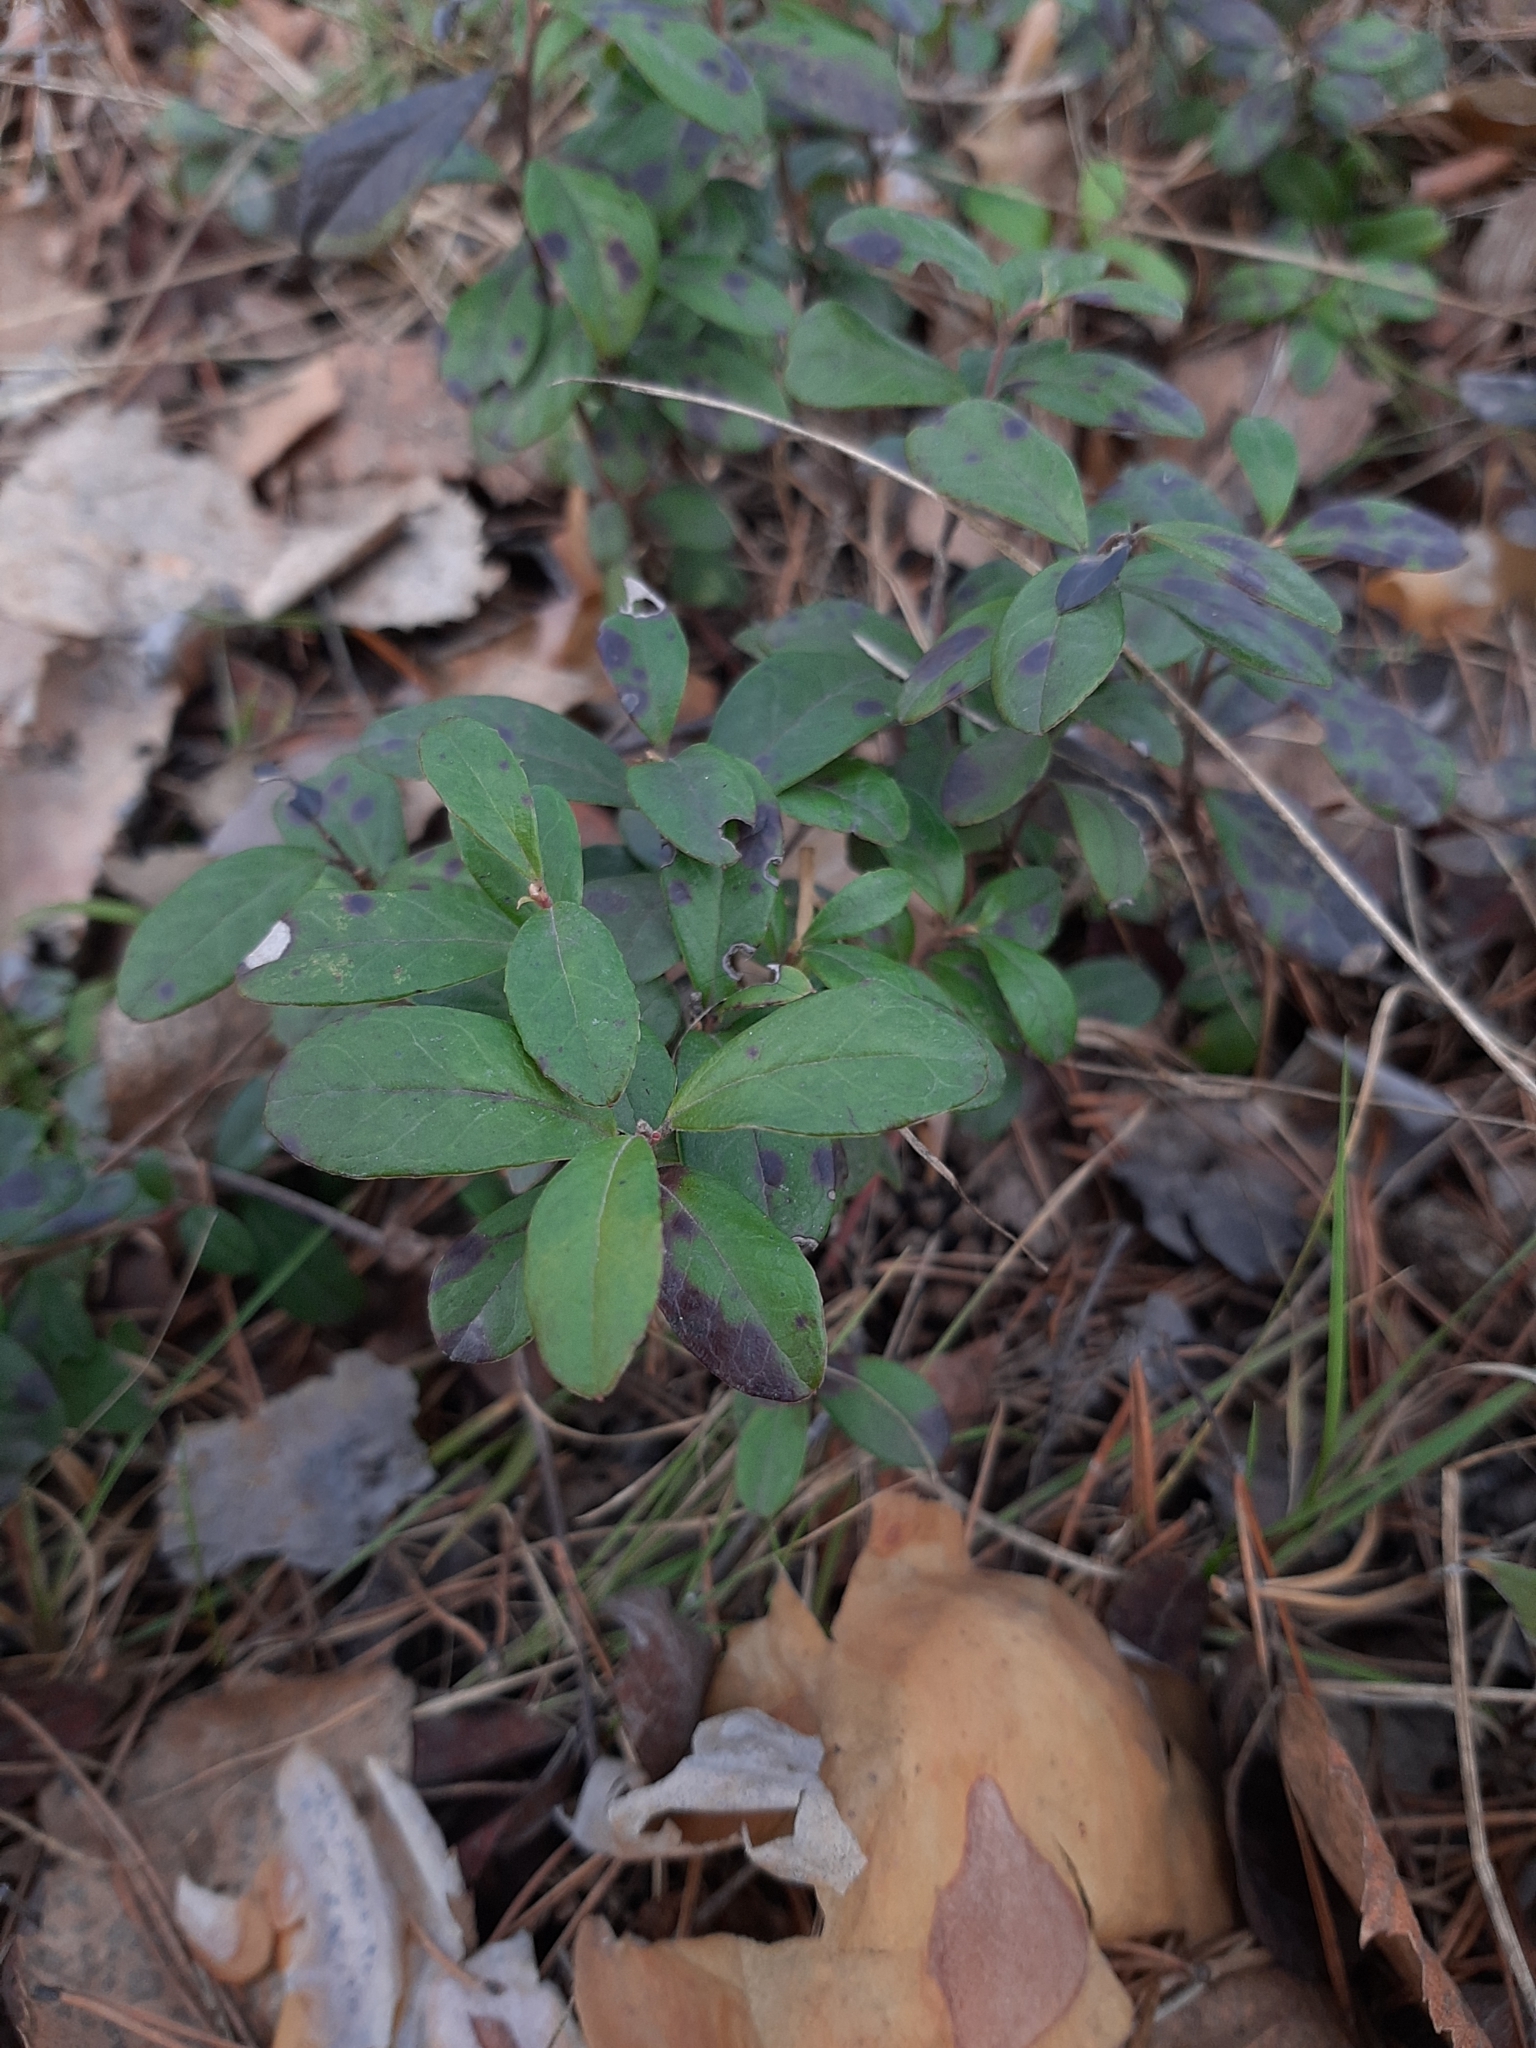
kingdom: Plantae
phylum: Tracheophyta
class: Magnoliopsida
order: Ericales
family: Ericaceae
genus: Vaccinium
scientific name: Vaccinium vitis-idaea
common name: Cowberry
